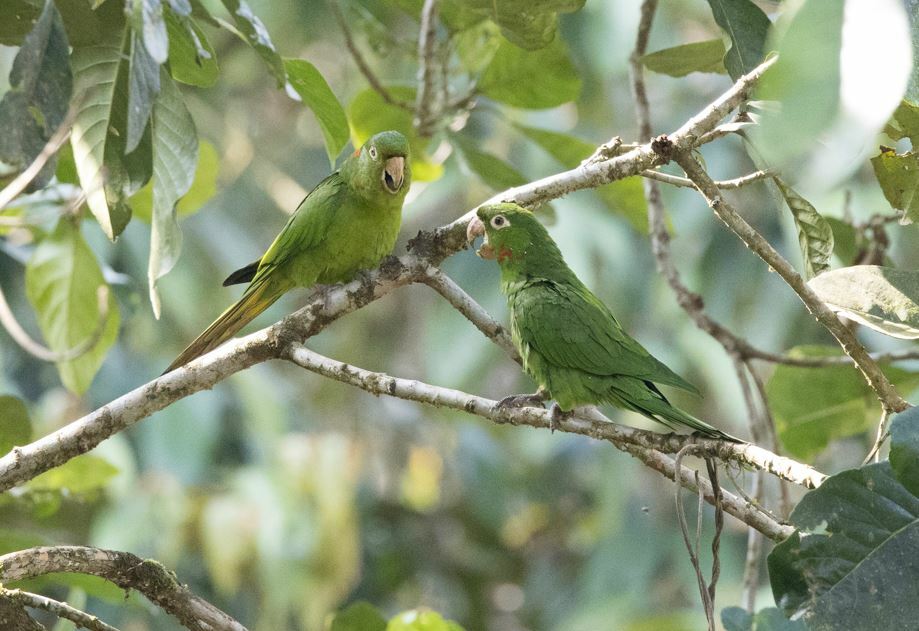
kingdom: Animalia
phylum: Chordata
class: Aves
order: Psittaciformes
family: Psittacidae
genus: Aratinga
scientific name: Aratinga leucophthalma
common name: White-eyed parakeet
